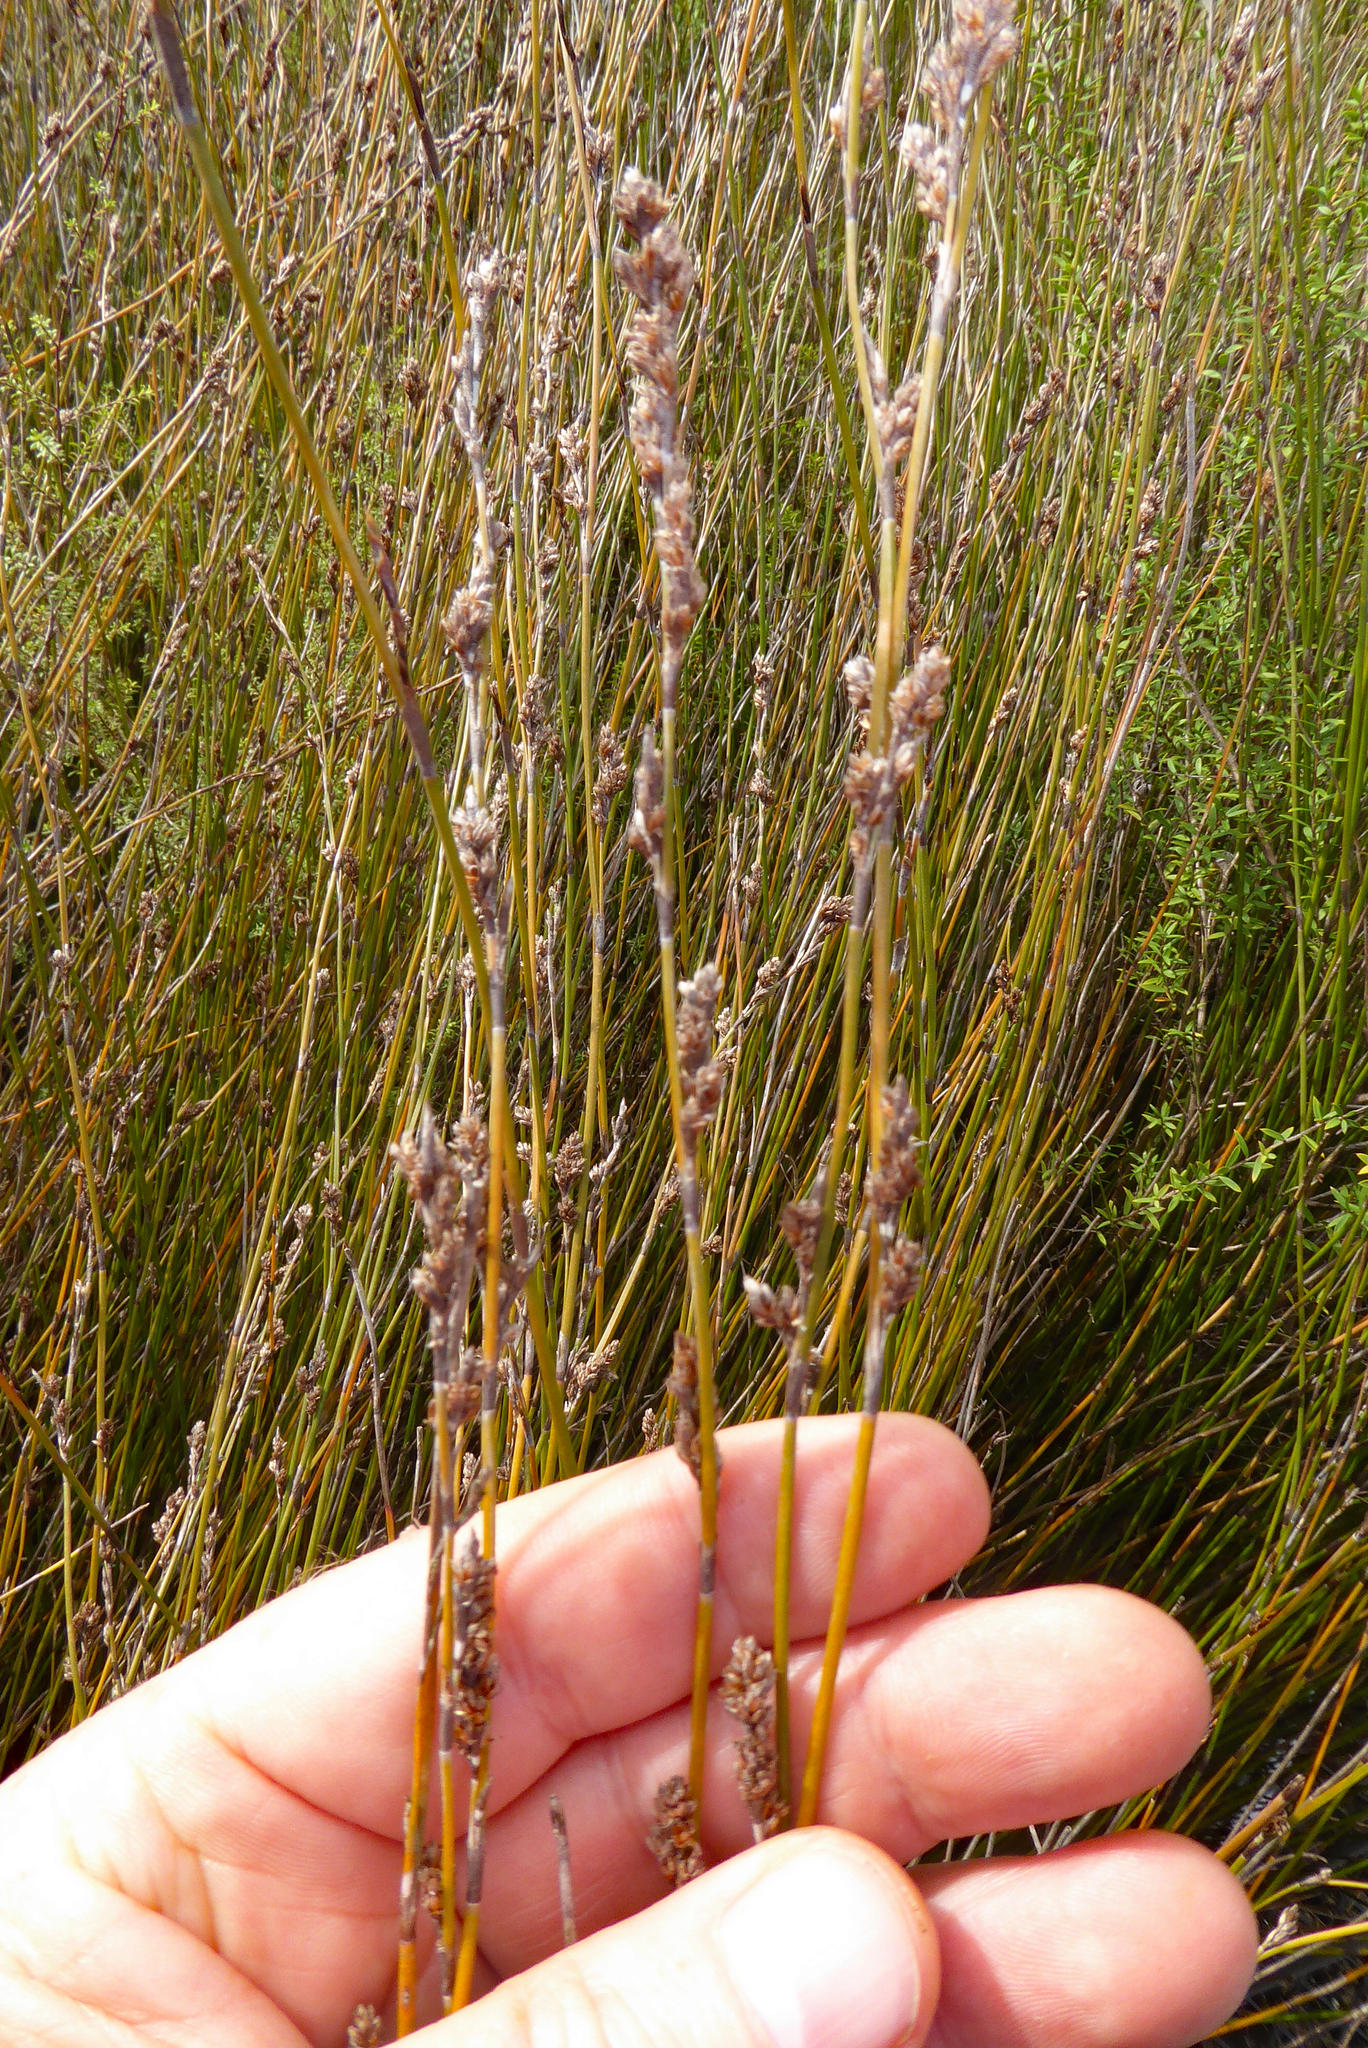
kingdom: Plantae
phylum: Tracheophyta
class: Liliopsida
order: Poales
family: Restionaceae
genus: Apodasmia
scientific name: Apodasmia similis
